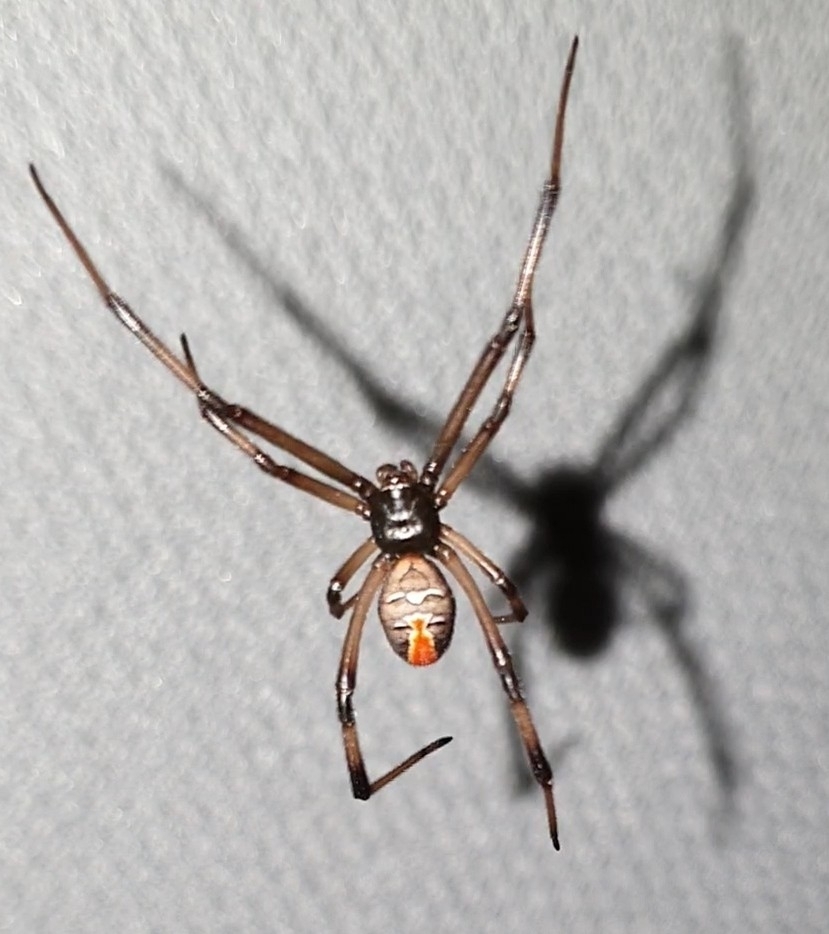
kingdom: Animalia
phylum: Arthropoda
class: Arachnida
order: Araneae
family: Theridiidae
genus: Latrodectus
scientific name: Latrodectus hasselti
